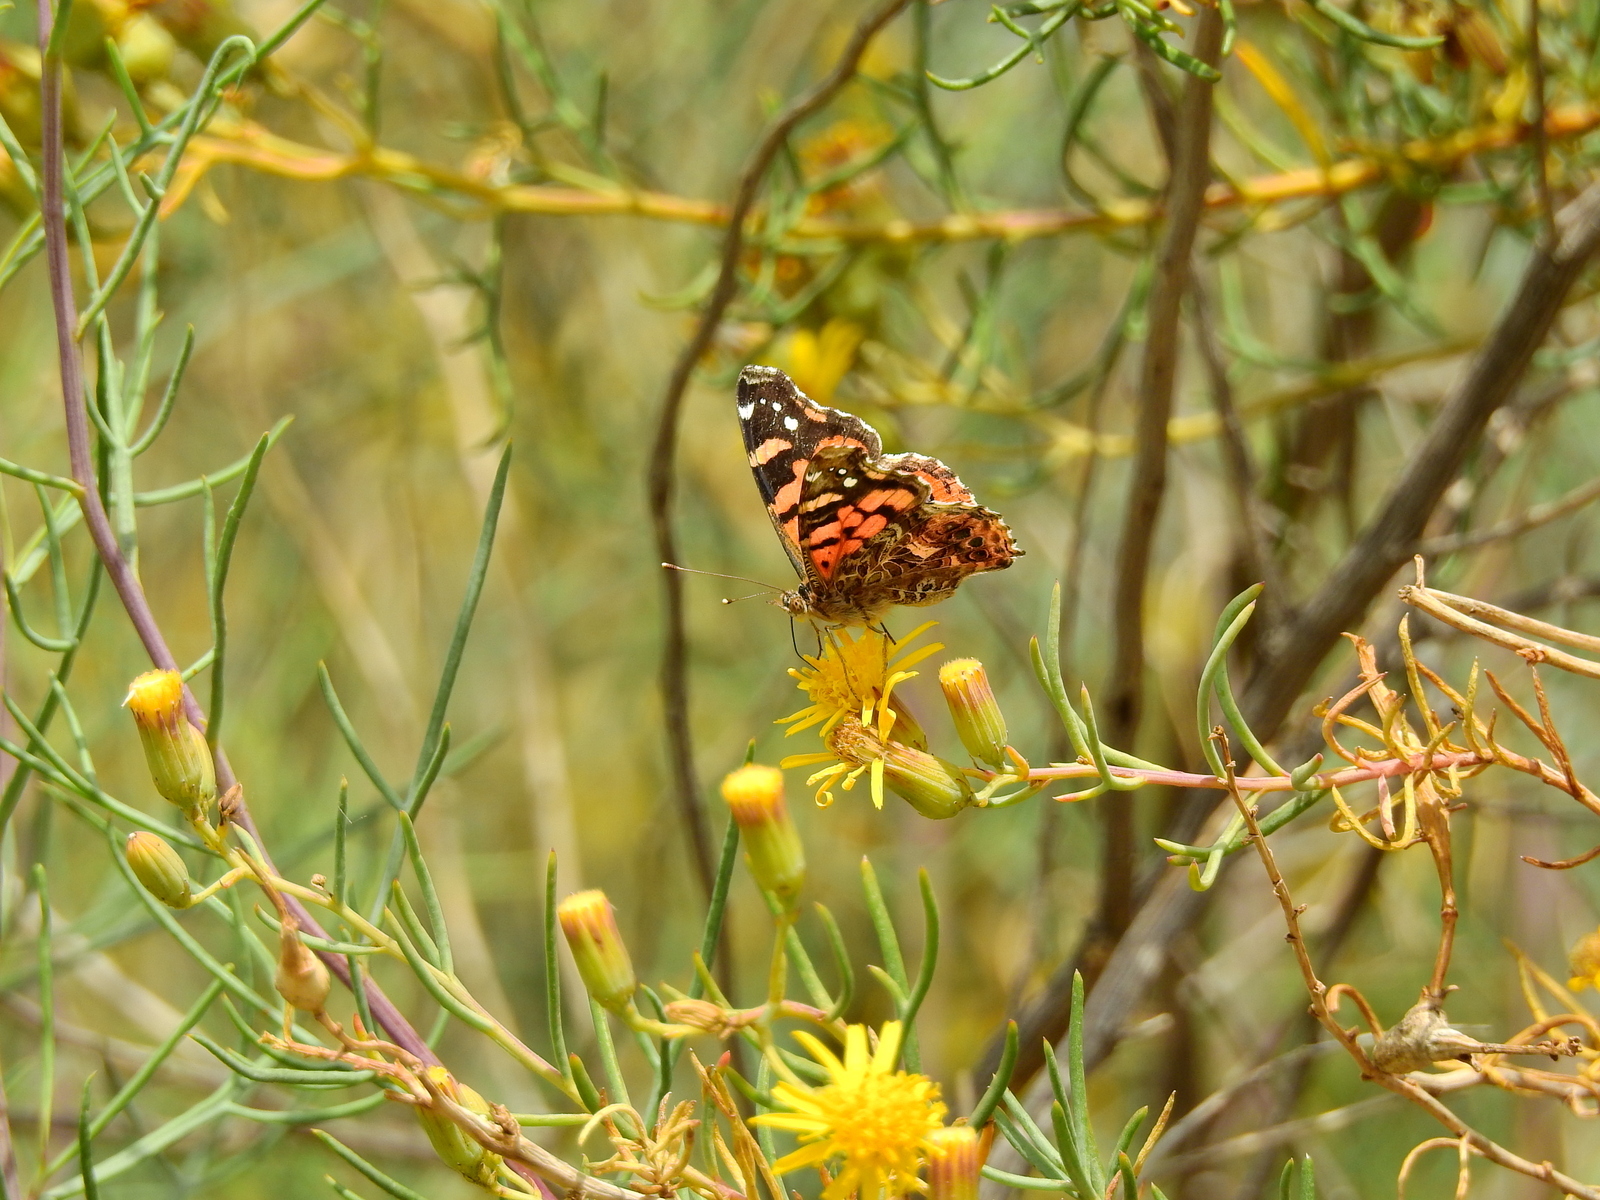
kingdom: Animalia
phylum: Arthropoda
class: Insecta
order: Lepidoptera
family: Nymphalidae
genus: Vanessa
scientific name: Vanessa carye
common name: Subtropical lady
